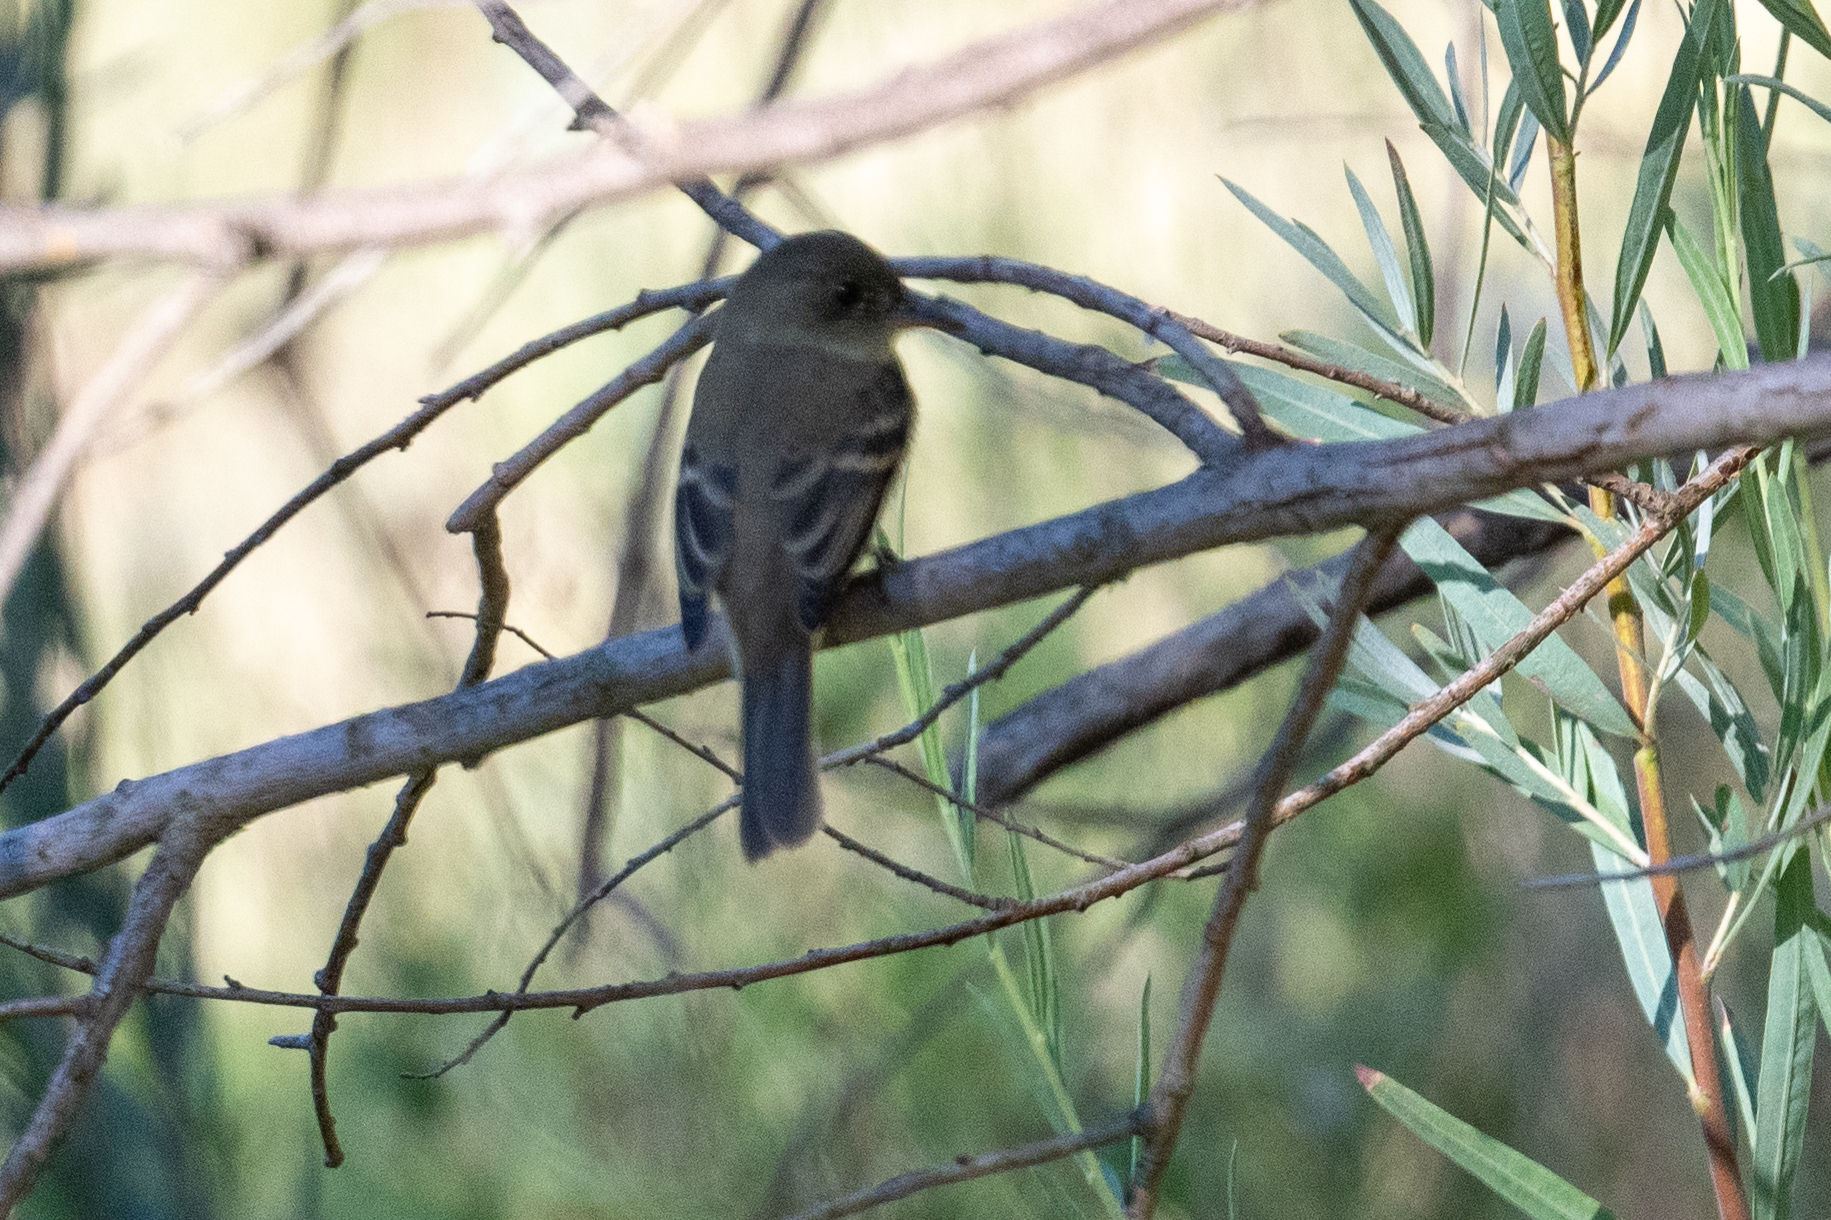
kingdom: Animalia
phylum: Chordata
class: Aves
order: Passeriformes
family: Tyrannidae
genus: Empidonax
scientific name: Empidonax traillii
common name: Willow flycatcher
